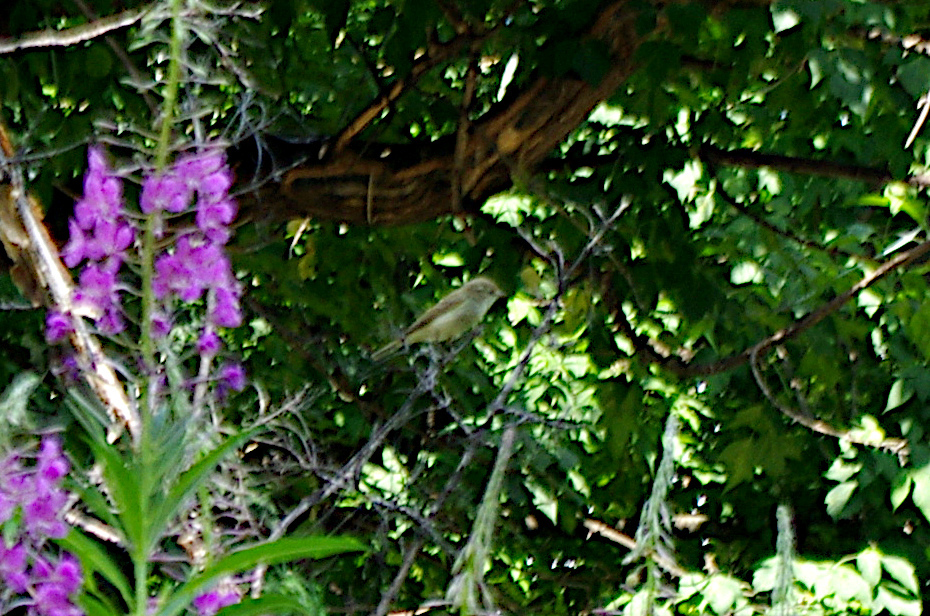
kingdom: Animalia
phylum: Chordata
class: Aves
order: Passeriformes
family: Phylloscopidae
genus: Phylloscopus
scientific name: Phylloscopus trochilus
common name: Willow warbler
